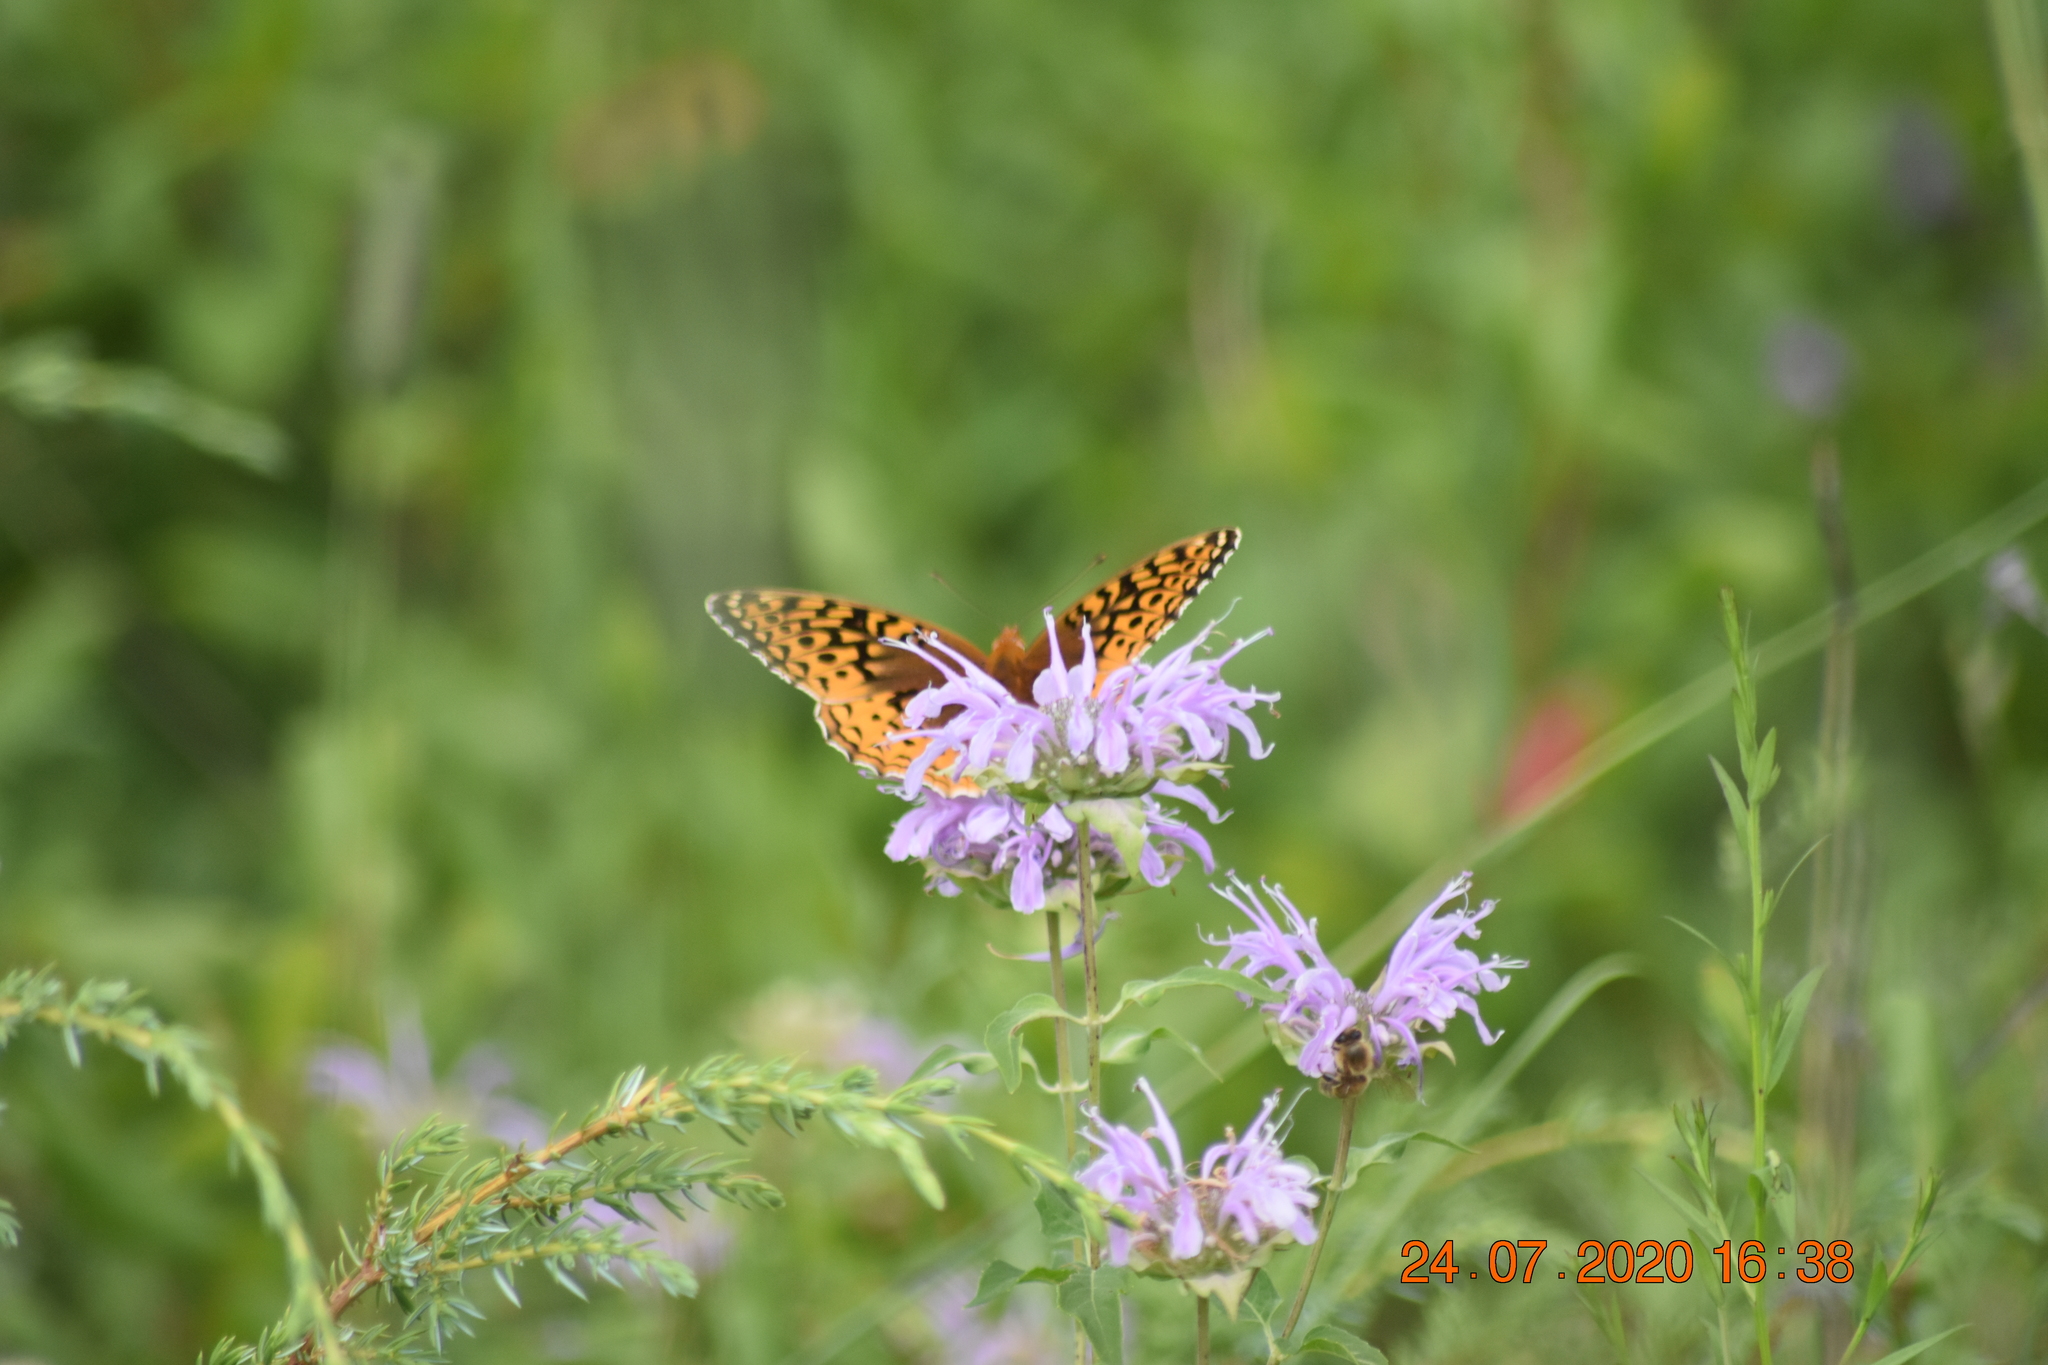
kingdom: Animalia
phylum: Arthropoda
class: Insecta
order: Lepidoptera
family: Nymphalidae
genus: Speyeria
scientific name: Speyeria cybele
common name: Great spangled fritillary
